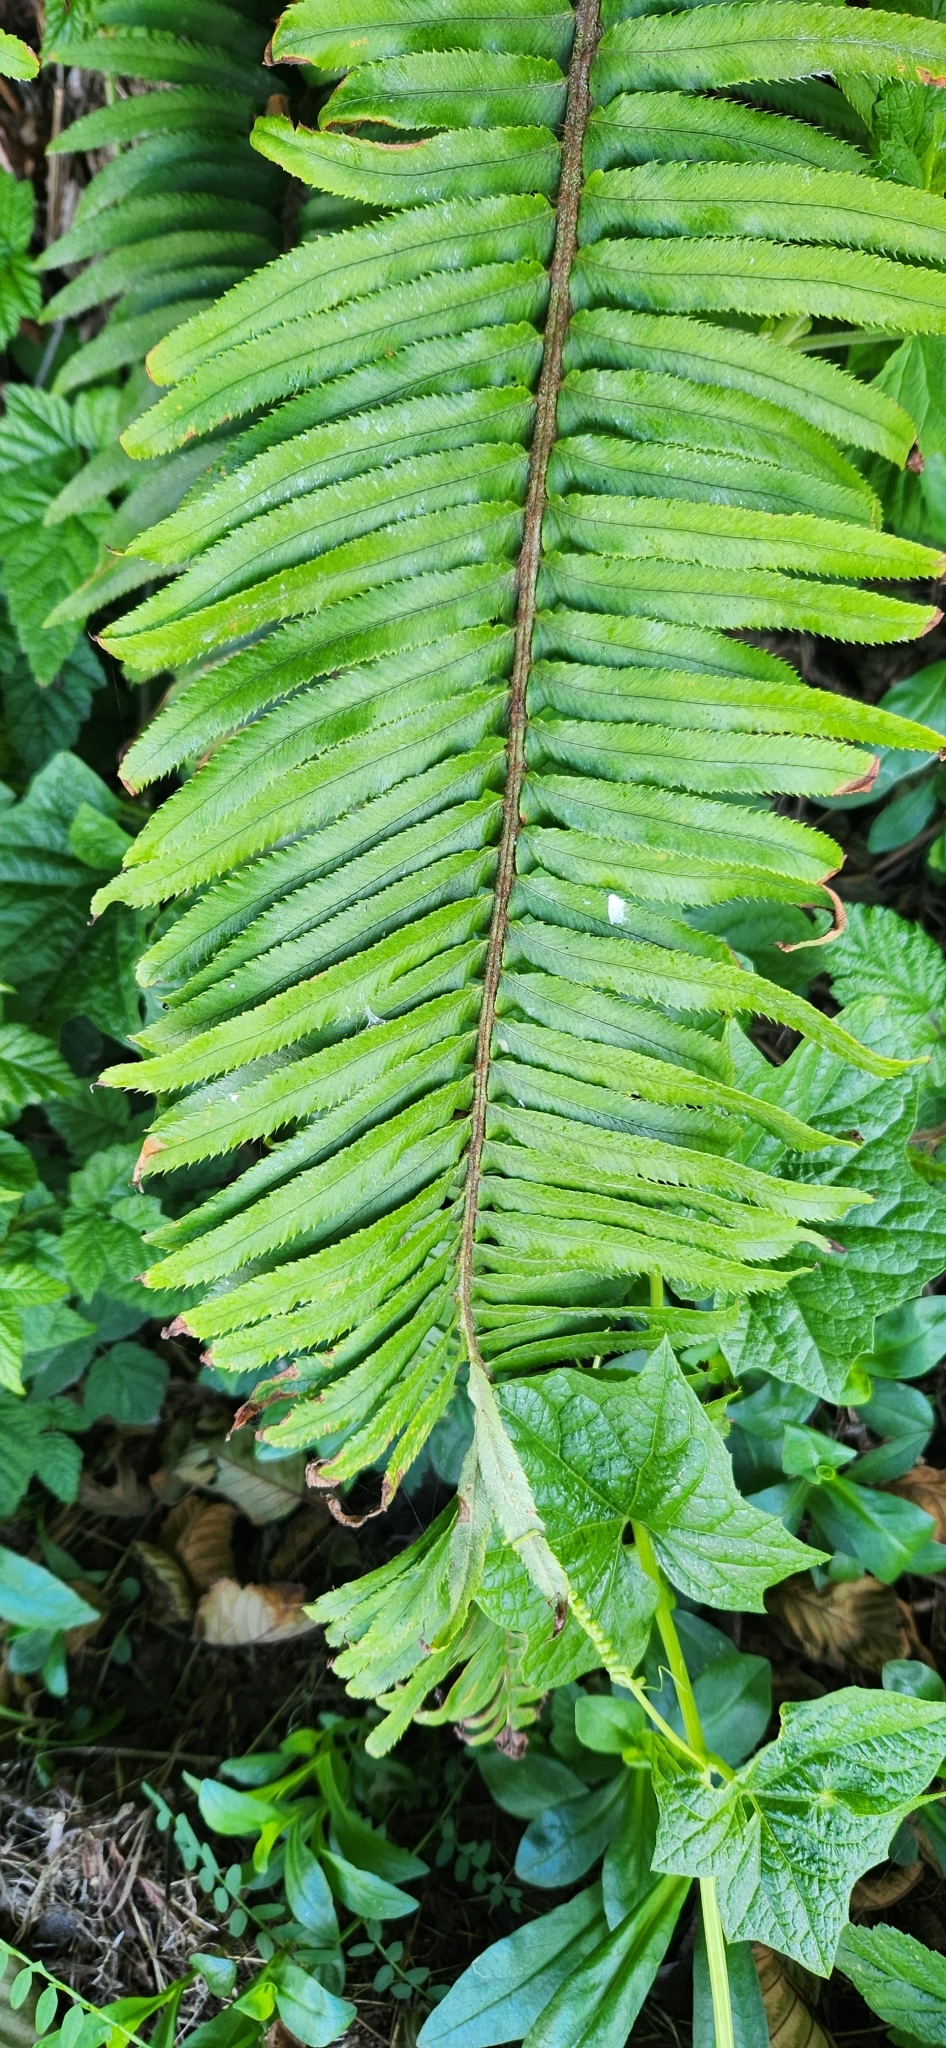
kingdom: Plantae
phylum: Tracheophyta
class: Polypodiopsida
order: Polypodiales
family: Dryopteridaceae
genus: Polystichum
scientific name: Polystichum munitum
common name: Western sword-fern
